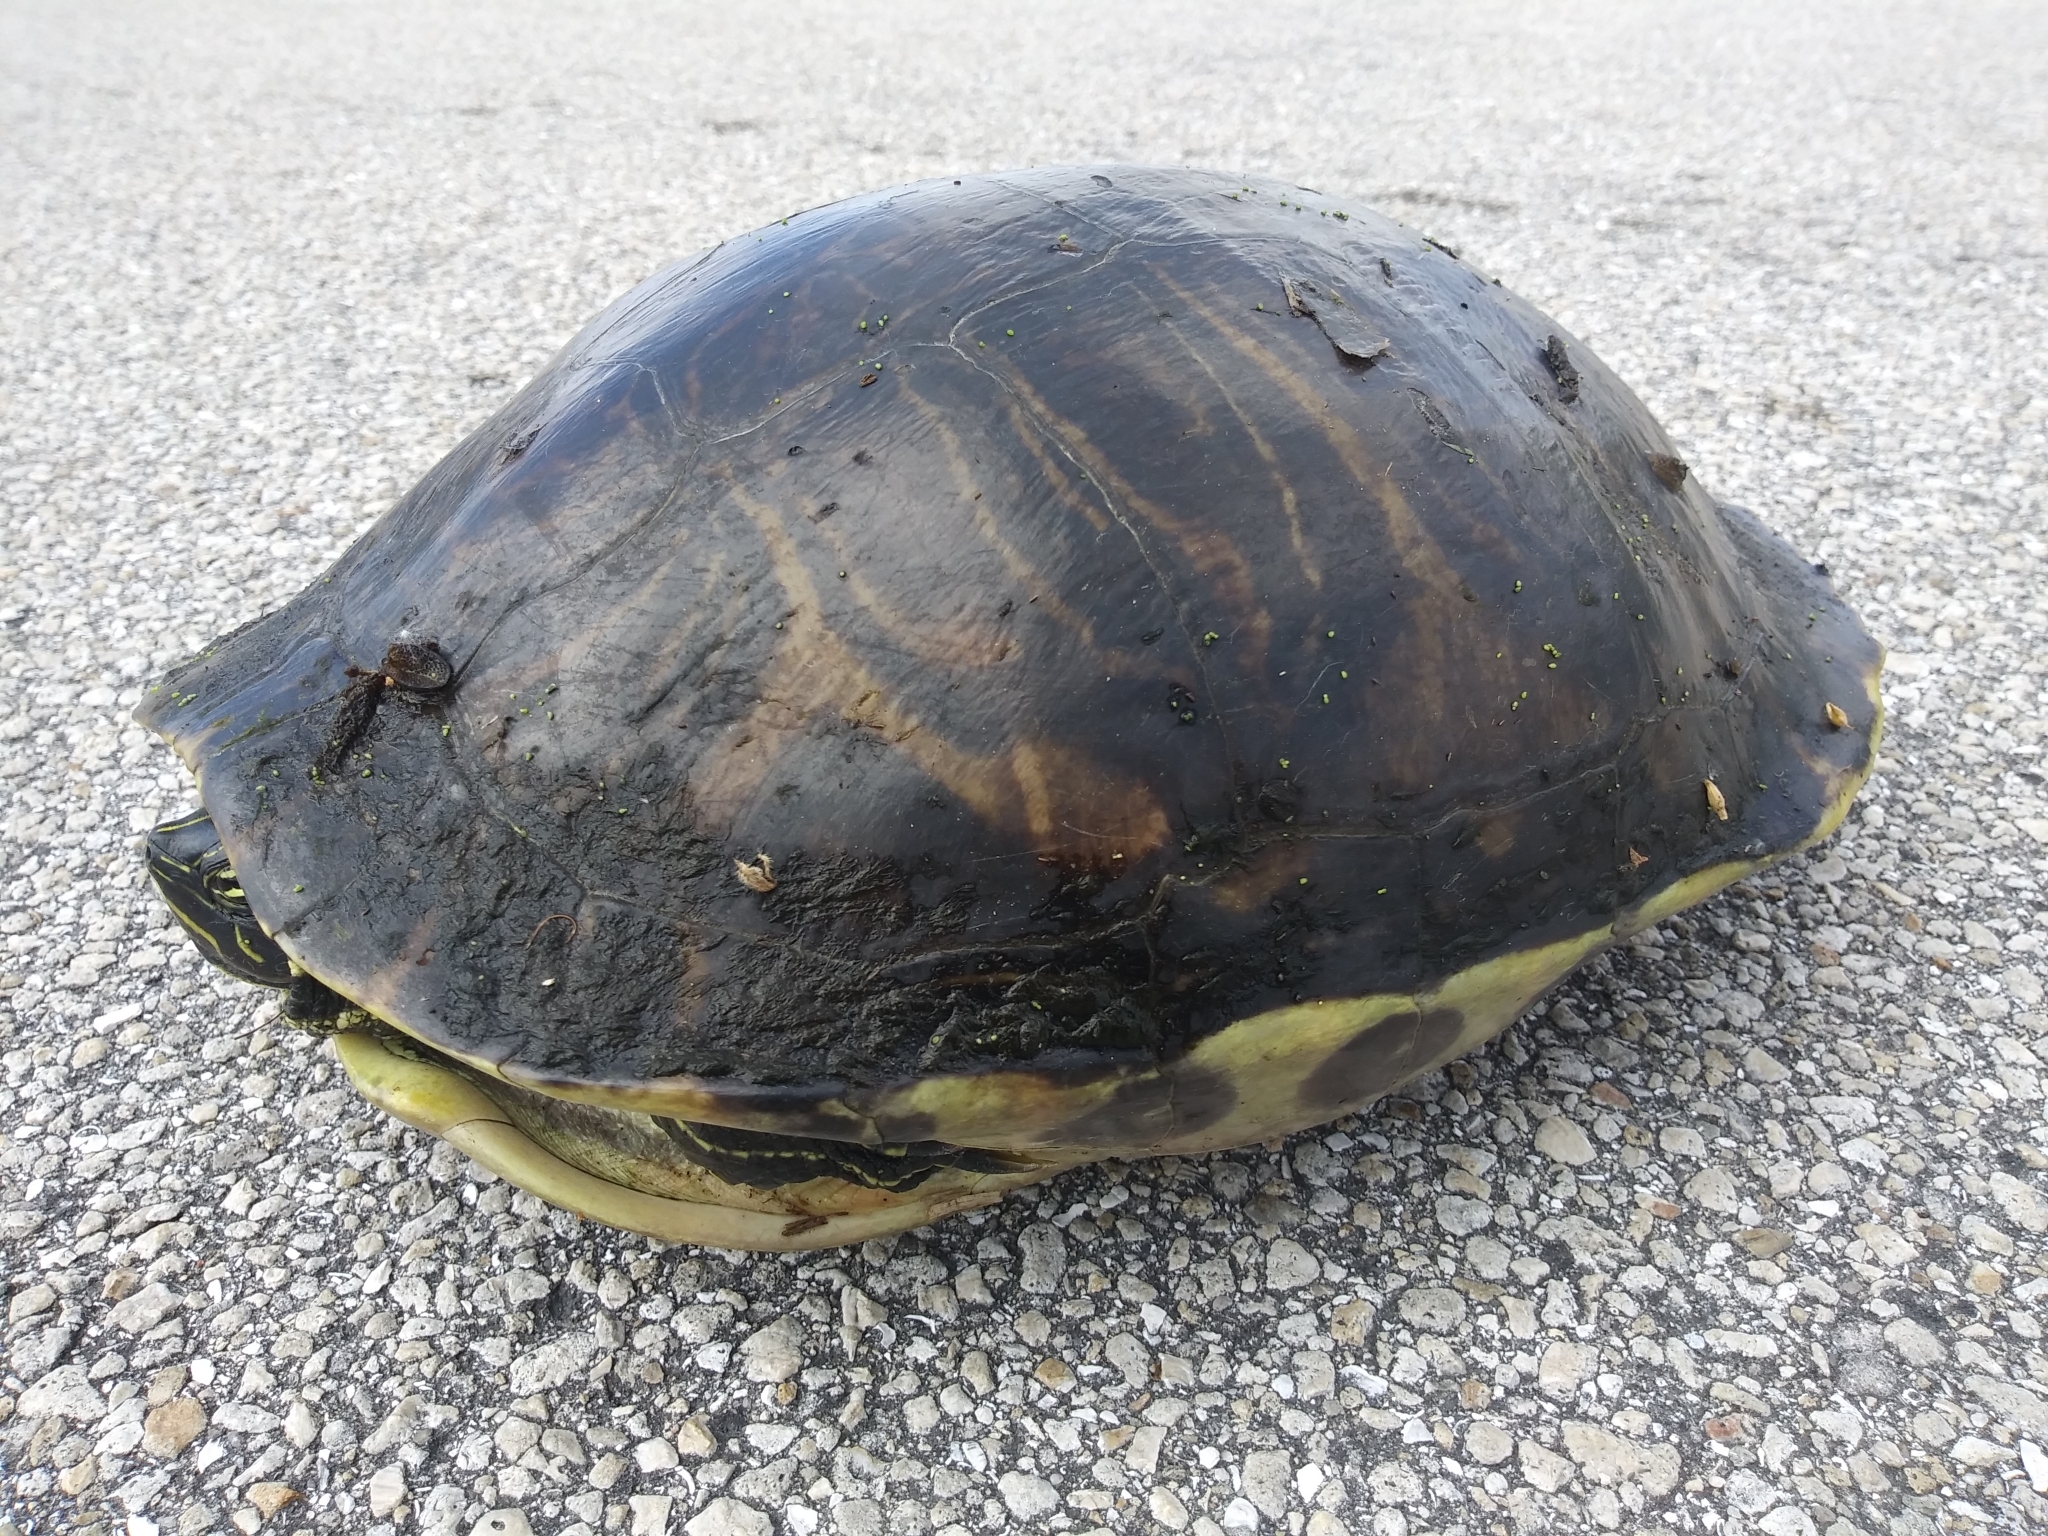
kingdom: Animalia
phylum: Chordata
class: Testudines
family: Emydidae
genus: Pseudemys
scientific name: Pseudemys peninsularis
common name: Peninsula cooter
